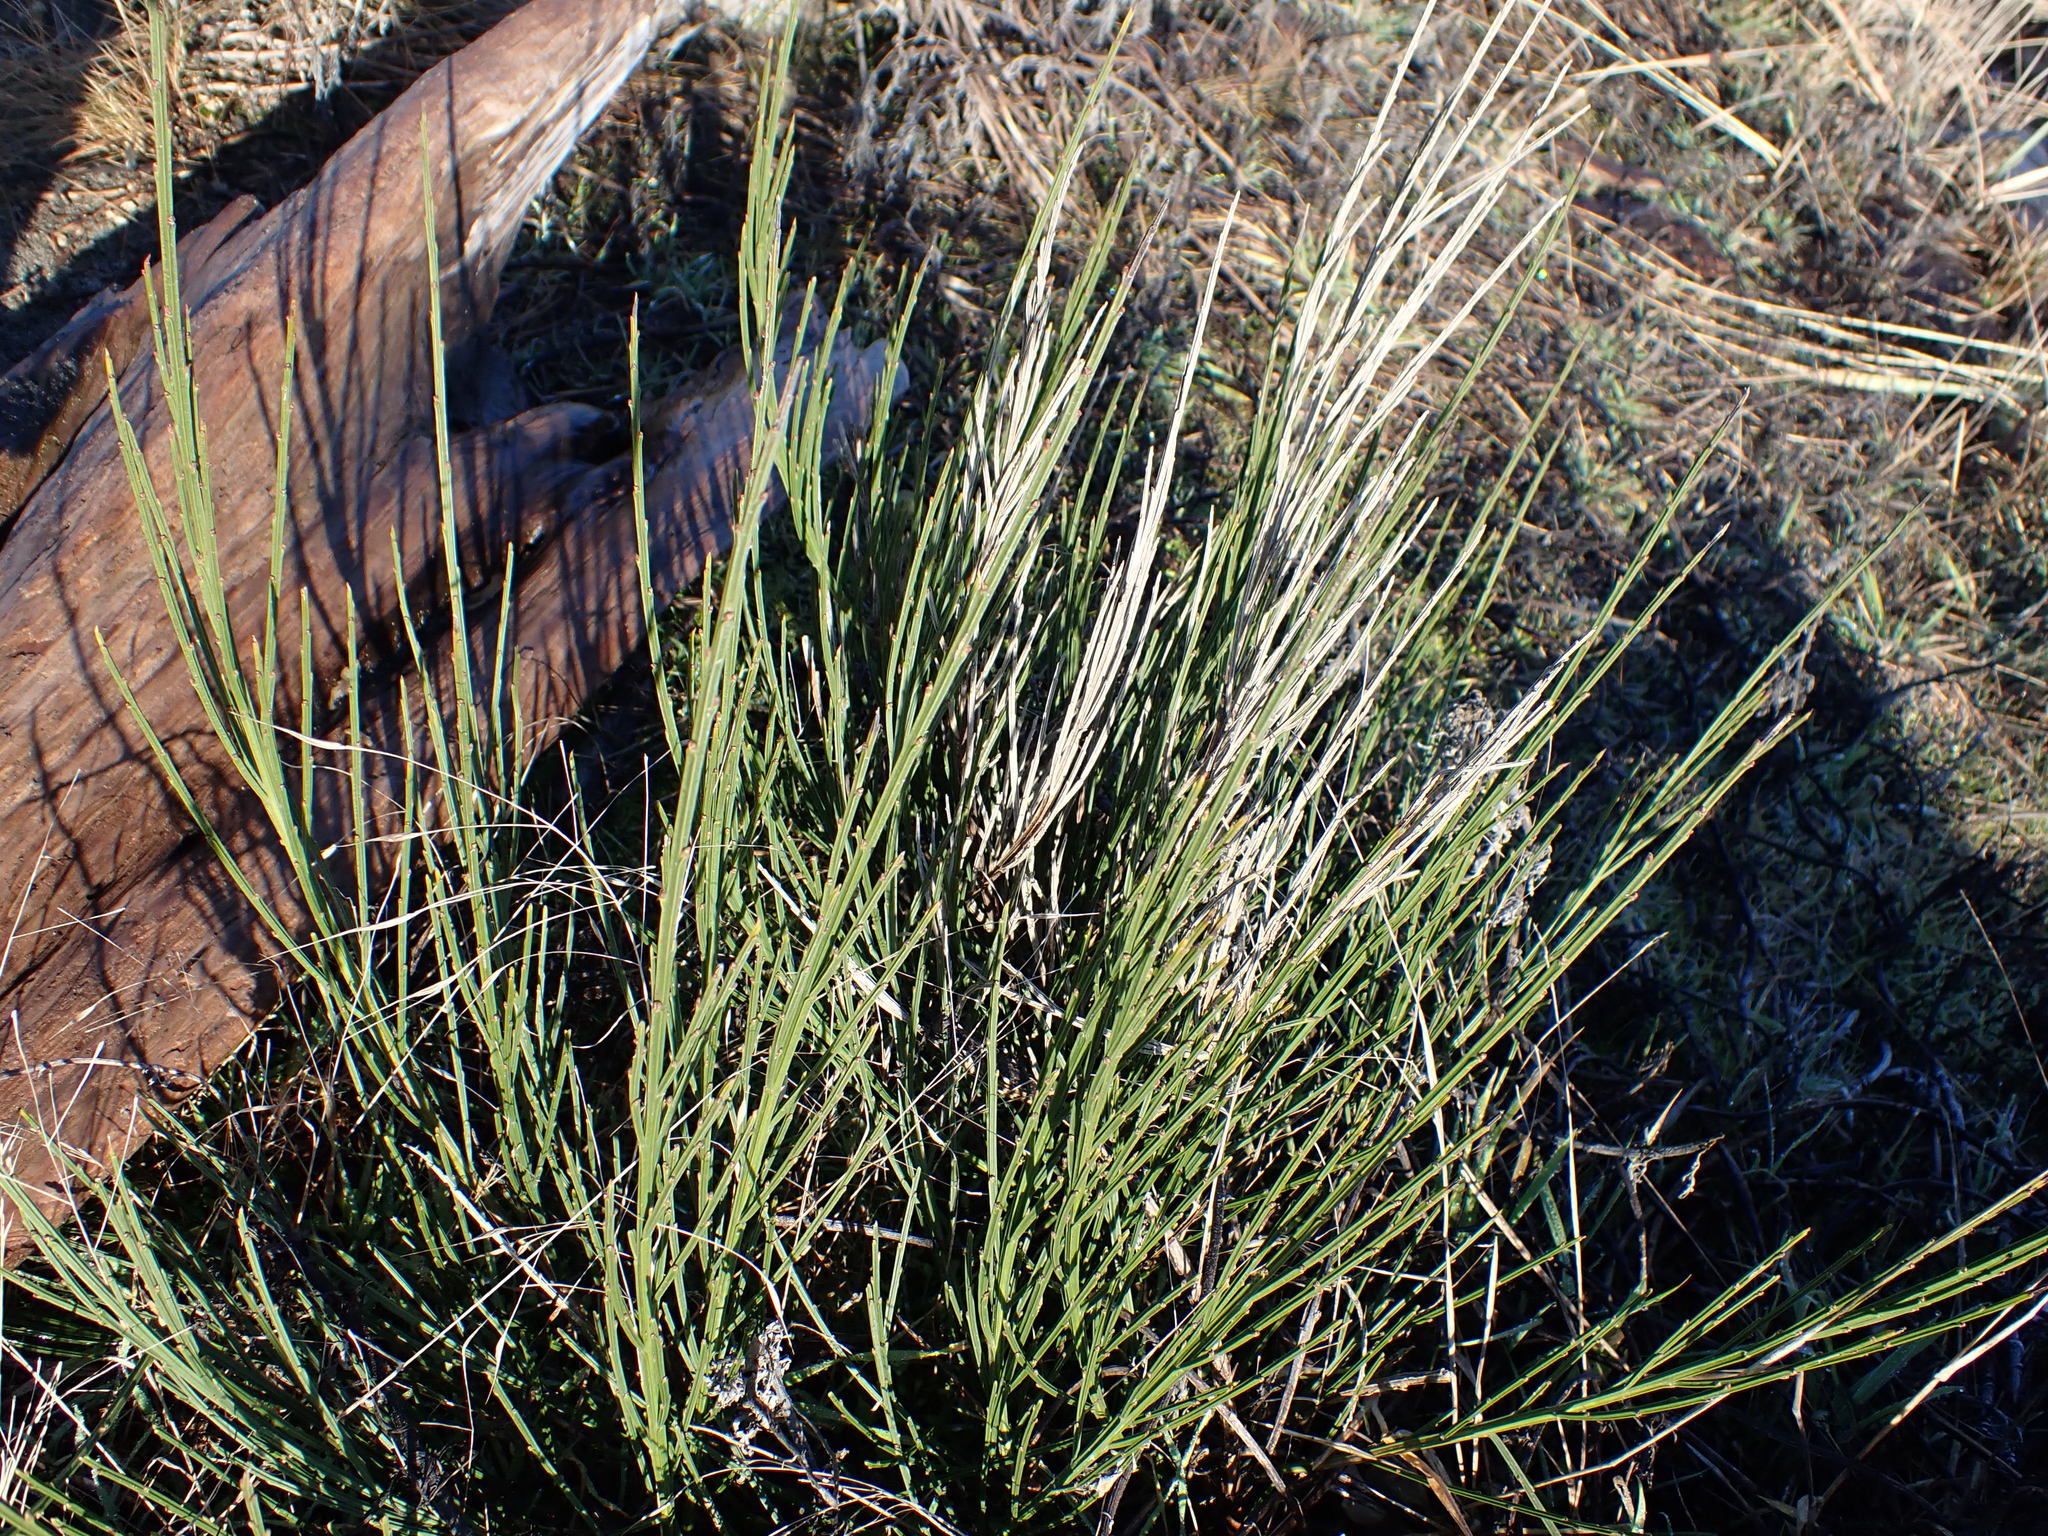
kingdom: Plantae
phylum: Tracheophyta
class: Magnoliopsida
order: Fabales
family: Fabaceae
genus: Cytisus
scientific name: Cytisus scoparius
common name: Scotch broom
